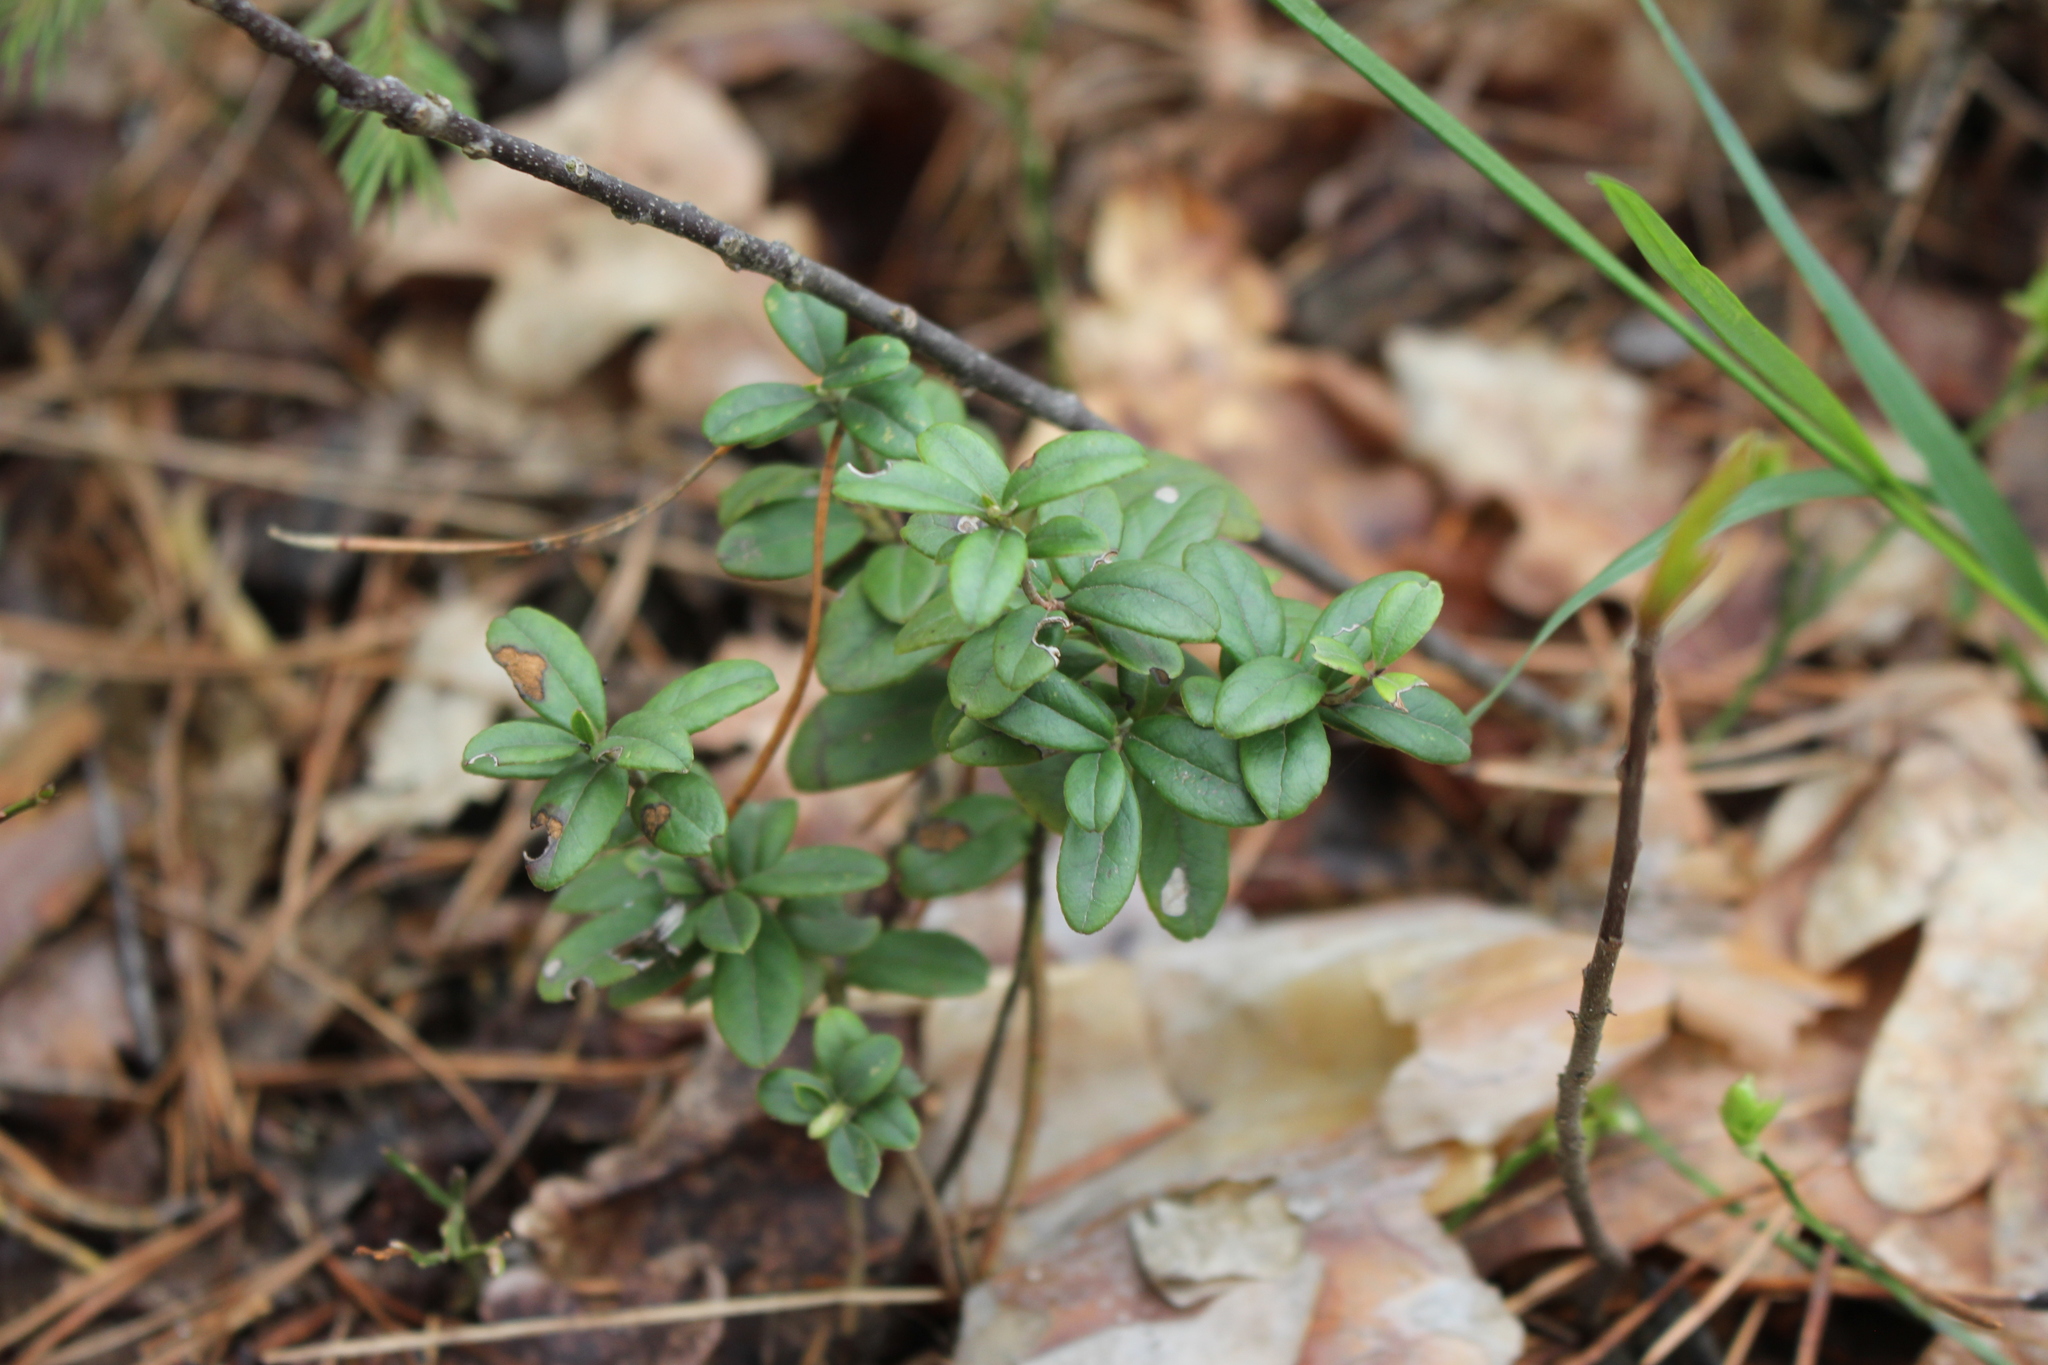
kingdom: Plantae
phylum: Tracheophyta
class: Magnoliopsida
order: Ericales
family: Ericaceae
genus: Vaccinium
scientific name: Vaccinium vitis-idaea
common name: Cowberry
